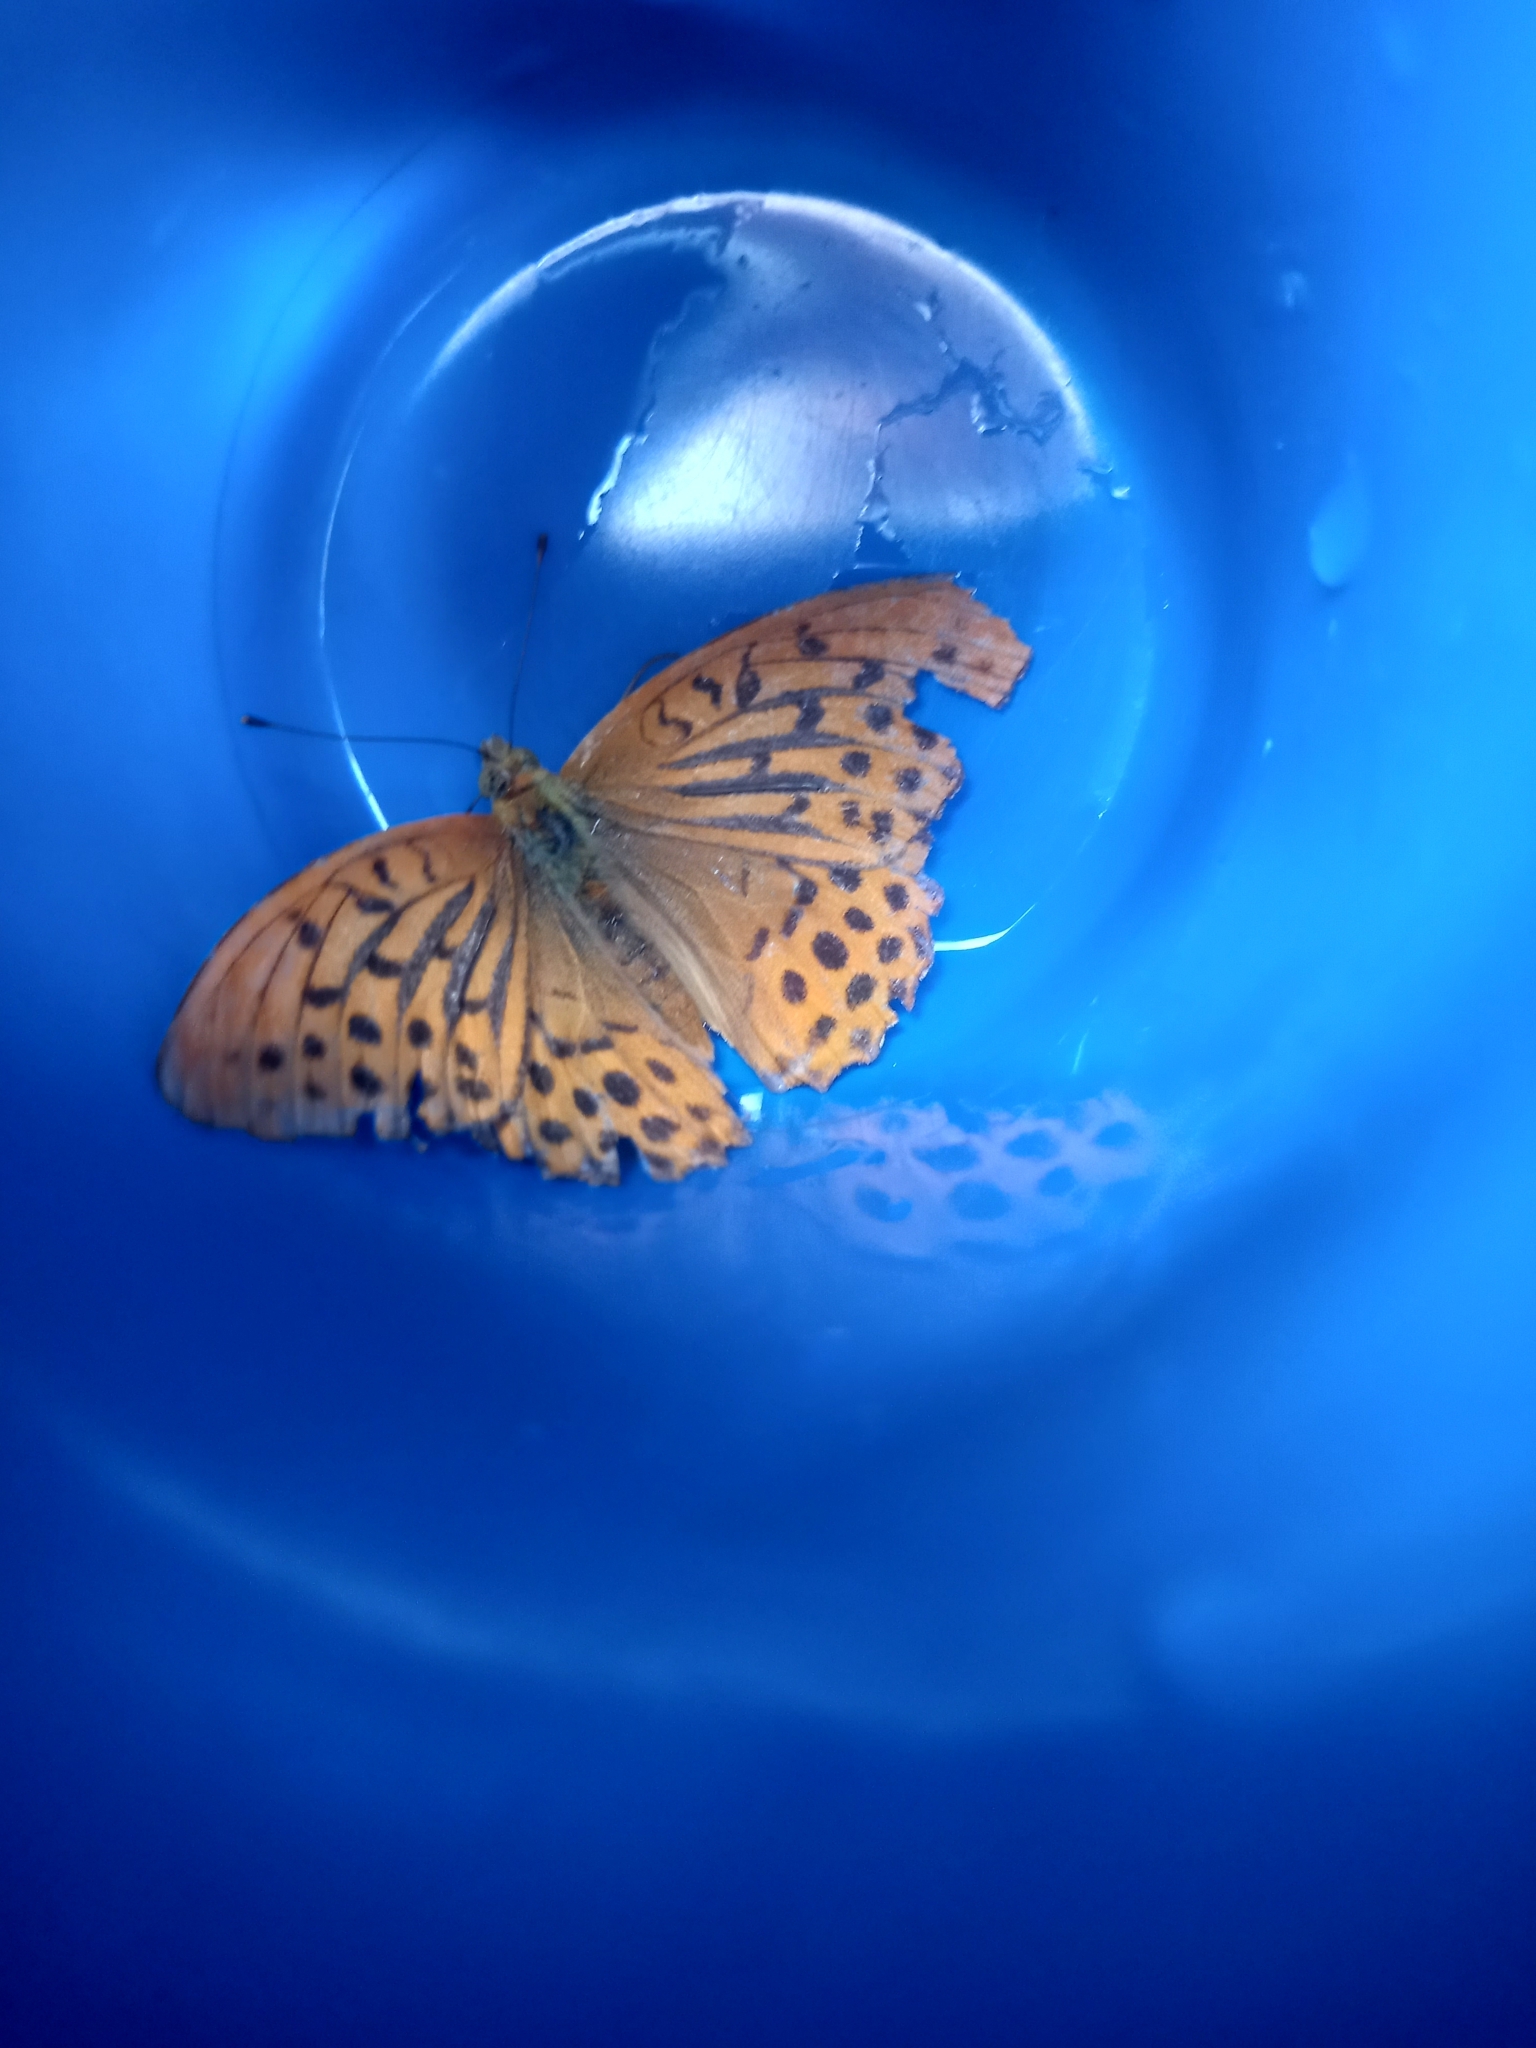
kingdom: Animalia
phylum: Arthropoda
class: Insecta
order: Lepidoptera
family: Nymphalidae
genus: Argynnis
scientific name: Argynnis paphia
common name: Silver-washed fritillary
